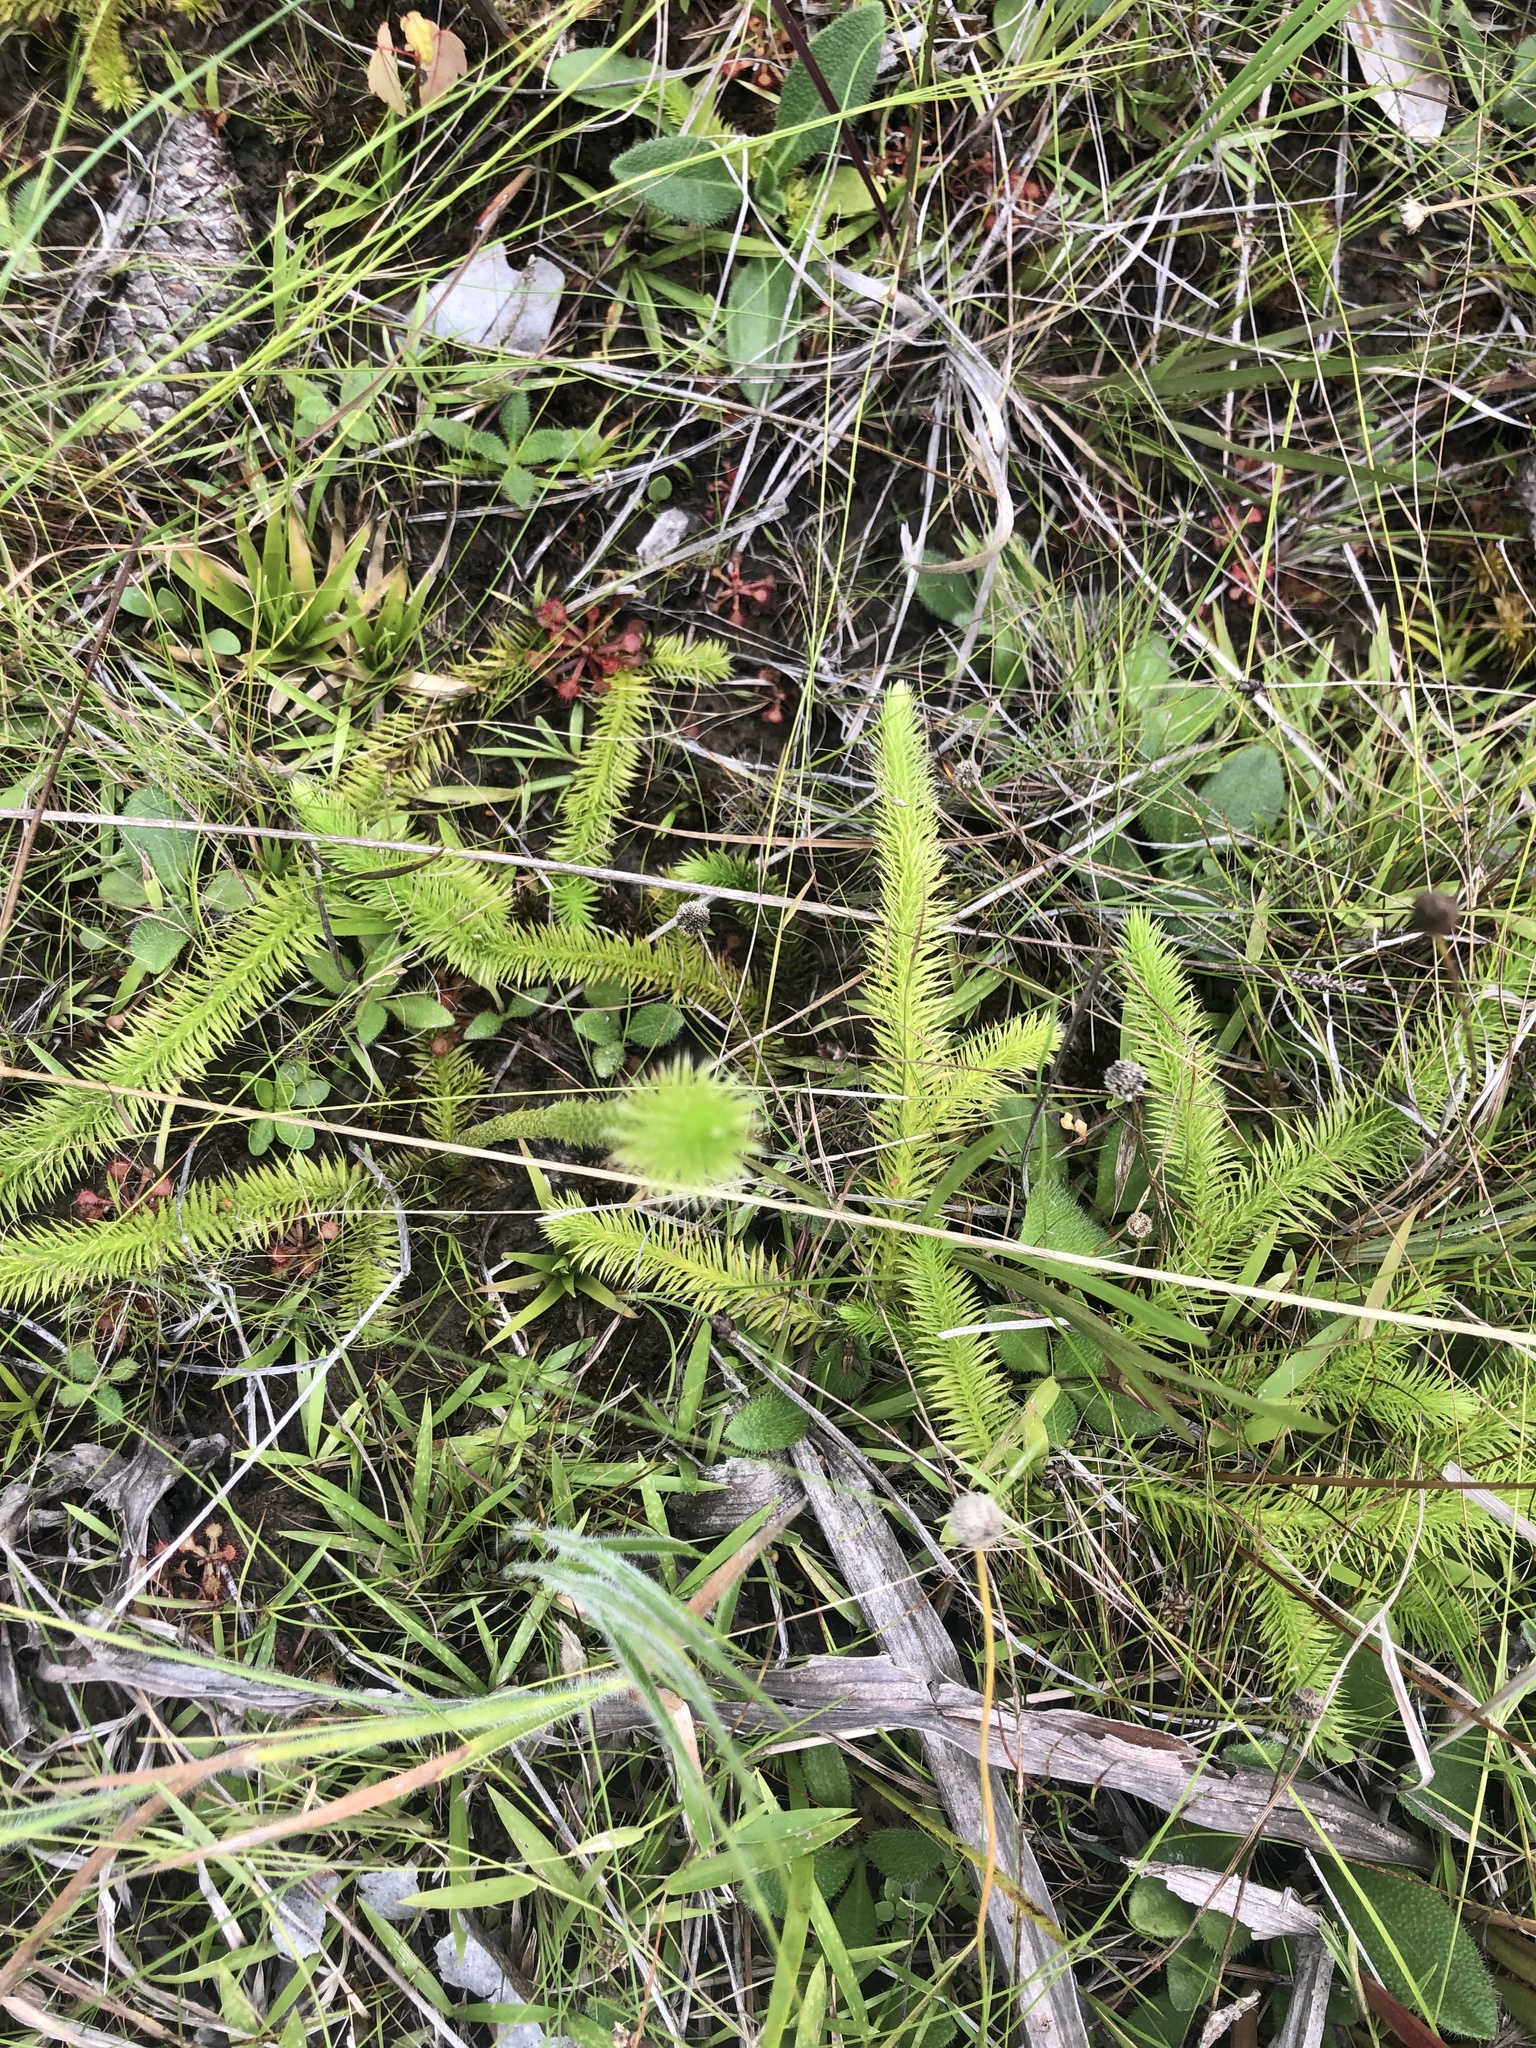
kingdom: Plantae
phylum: Tracheophyta
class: Lycopodiopsida
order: Lycopodiales
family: Lycopodiaceae
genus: Lycopodiella
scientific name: Lycopodiella alopecuroides
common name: Foxtail clubmoss
